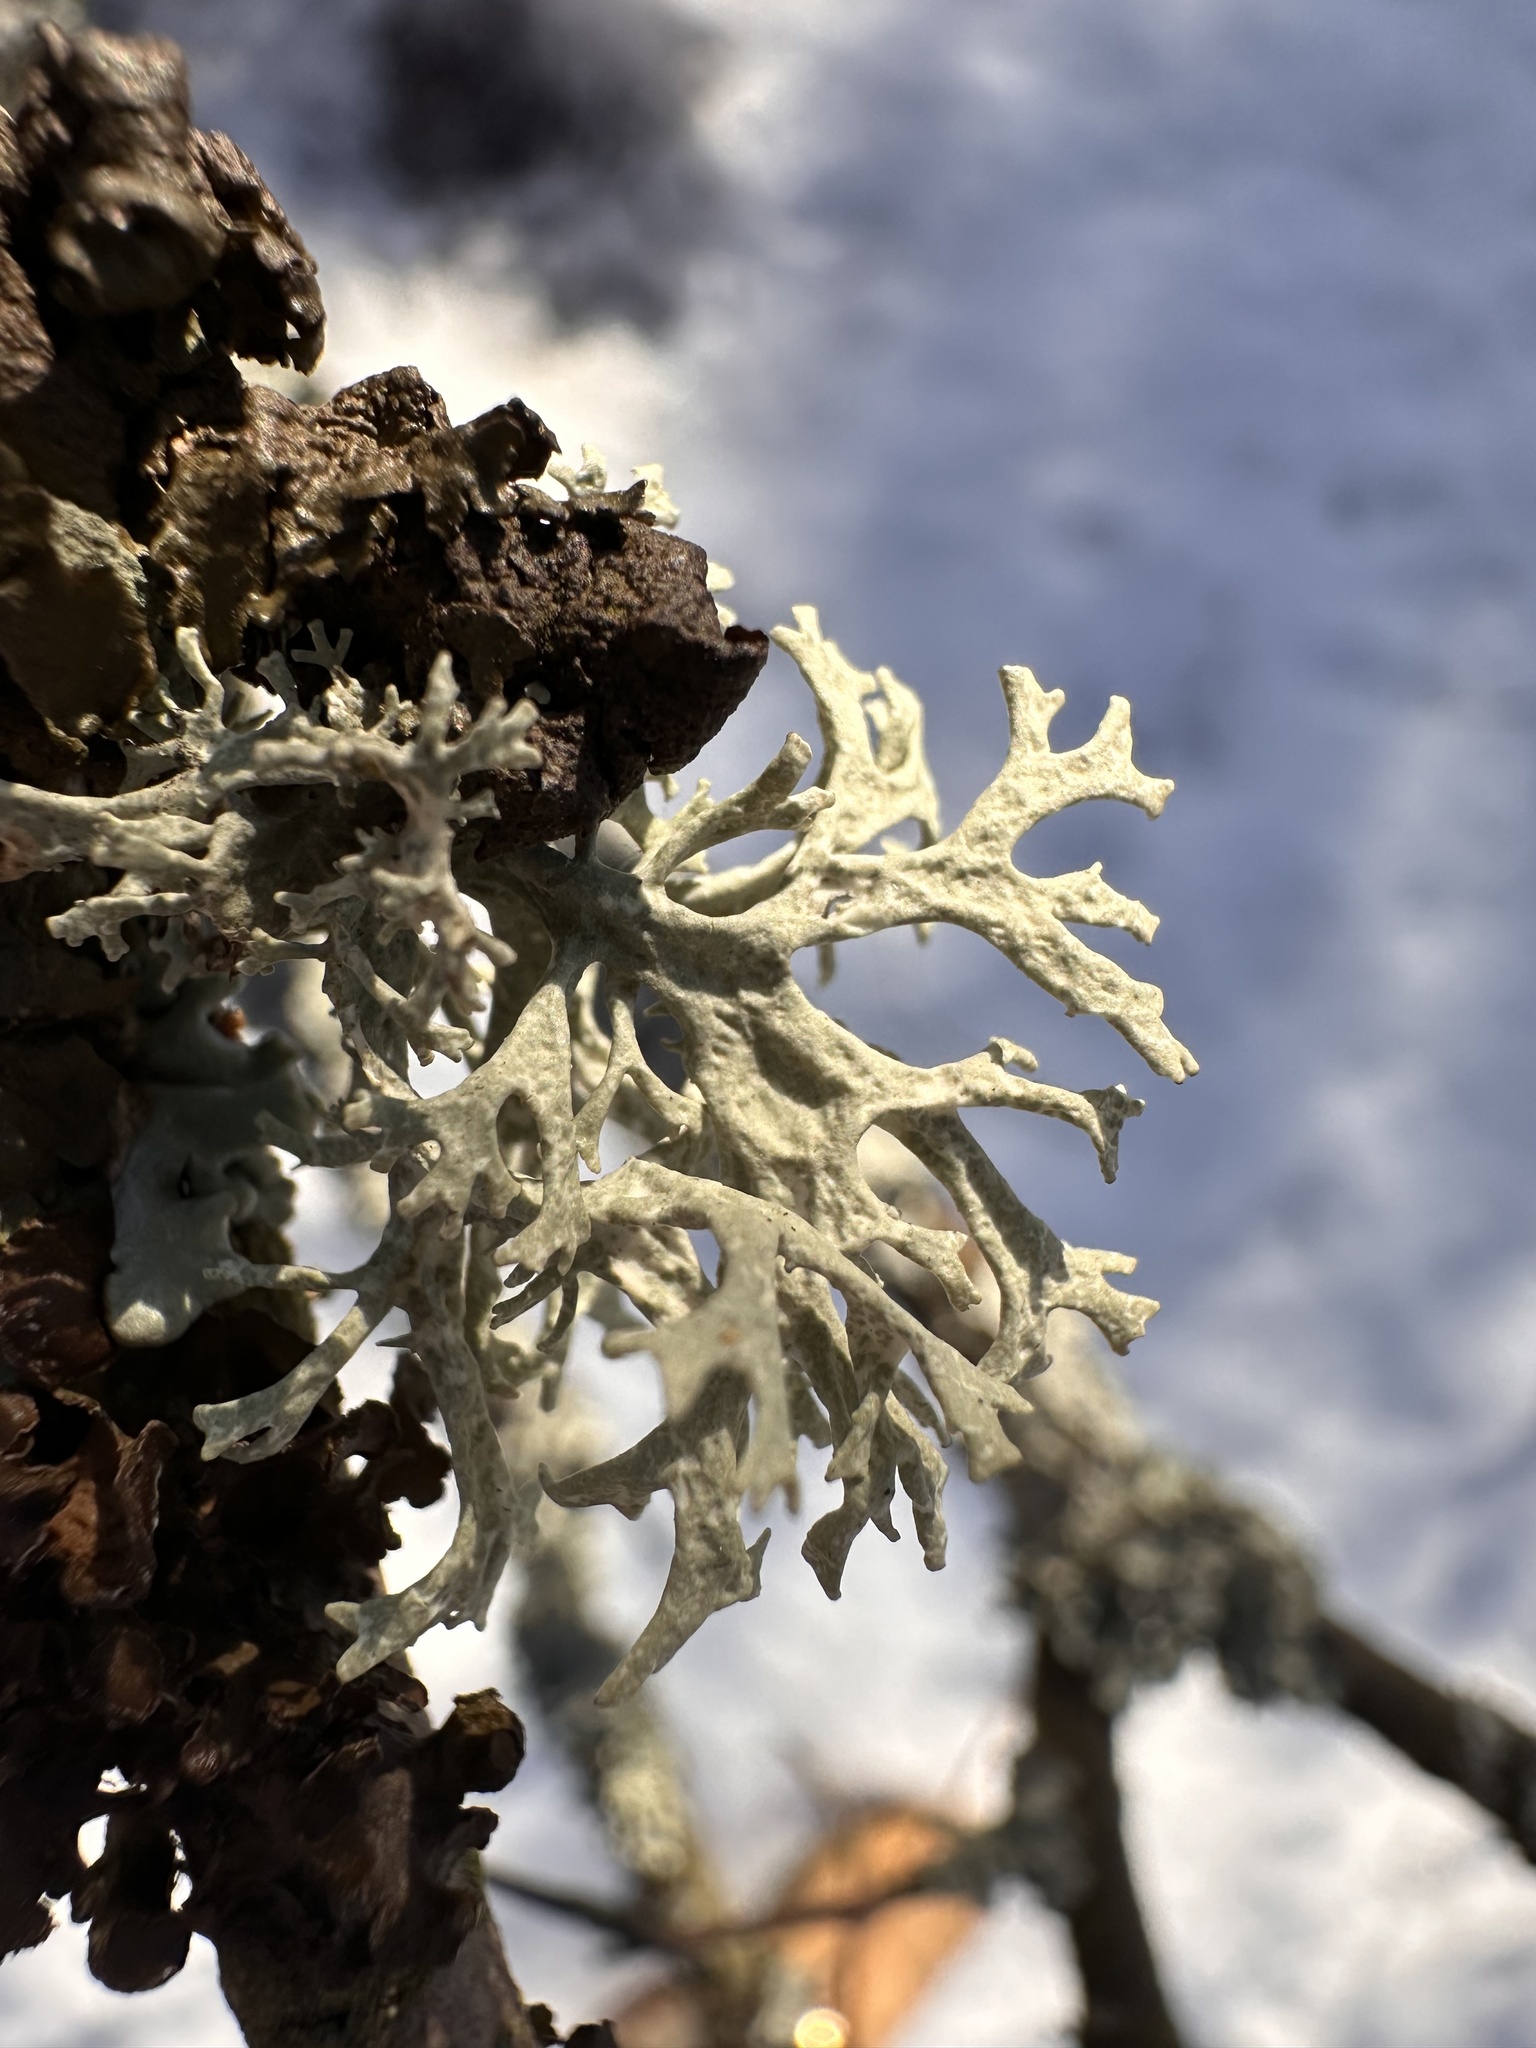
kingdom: Fungi
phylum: Ascomycota
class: Lecanoromycetes
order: Lecanorales
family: Parmeliaceae
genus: Evernia
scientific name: Evernia prunastri
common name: Oak moss
